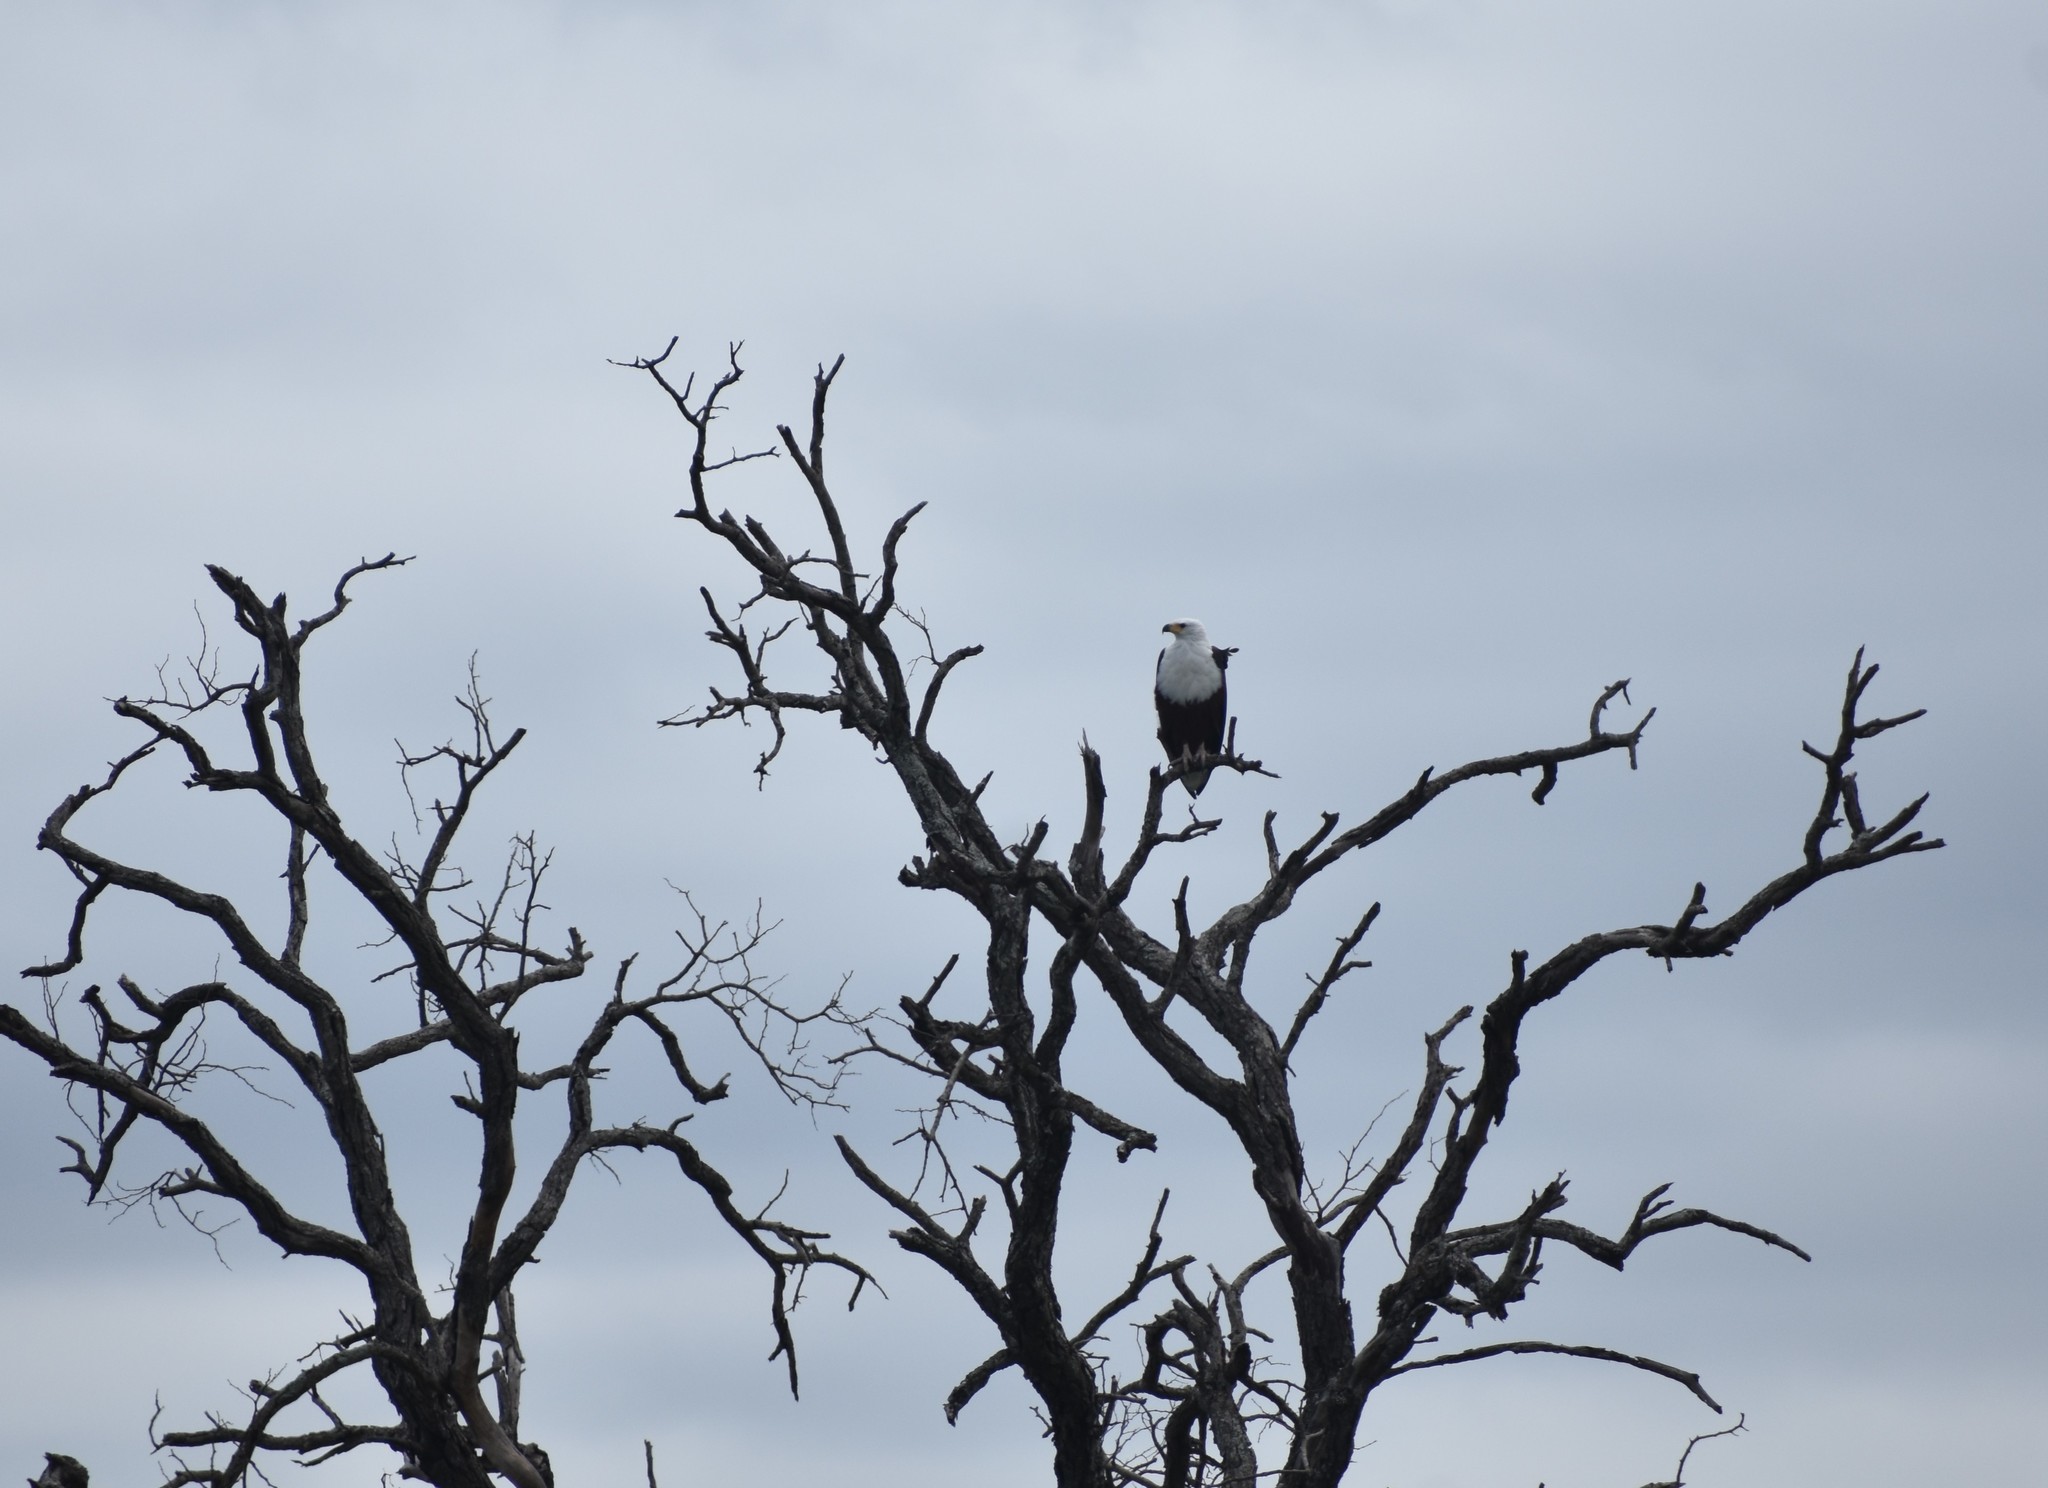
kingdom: Animalia
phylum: Chordata
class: Aves
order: Accipitriformes
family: Accipitridae
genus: Haliaeetus
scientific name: Haliaeetus vocifer
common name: African fish eagle
